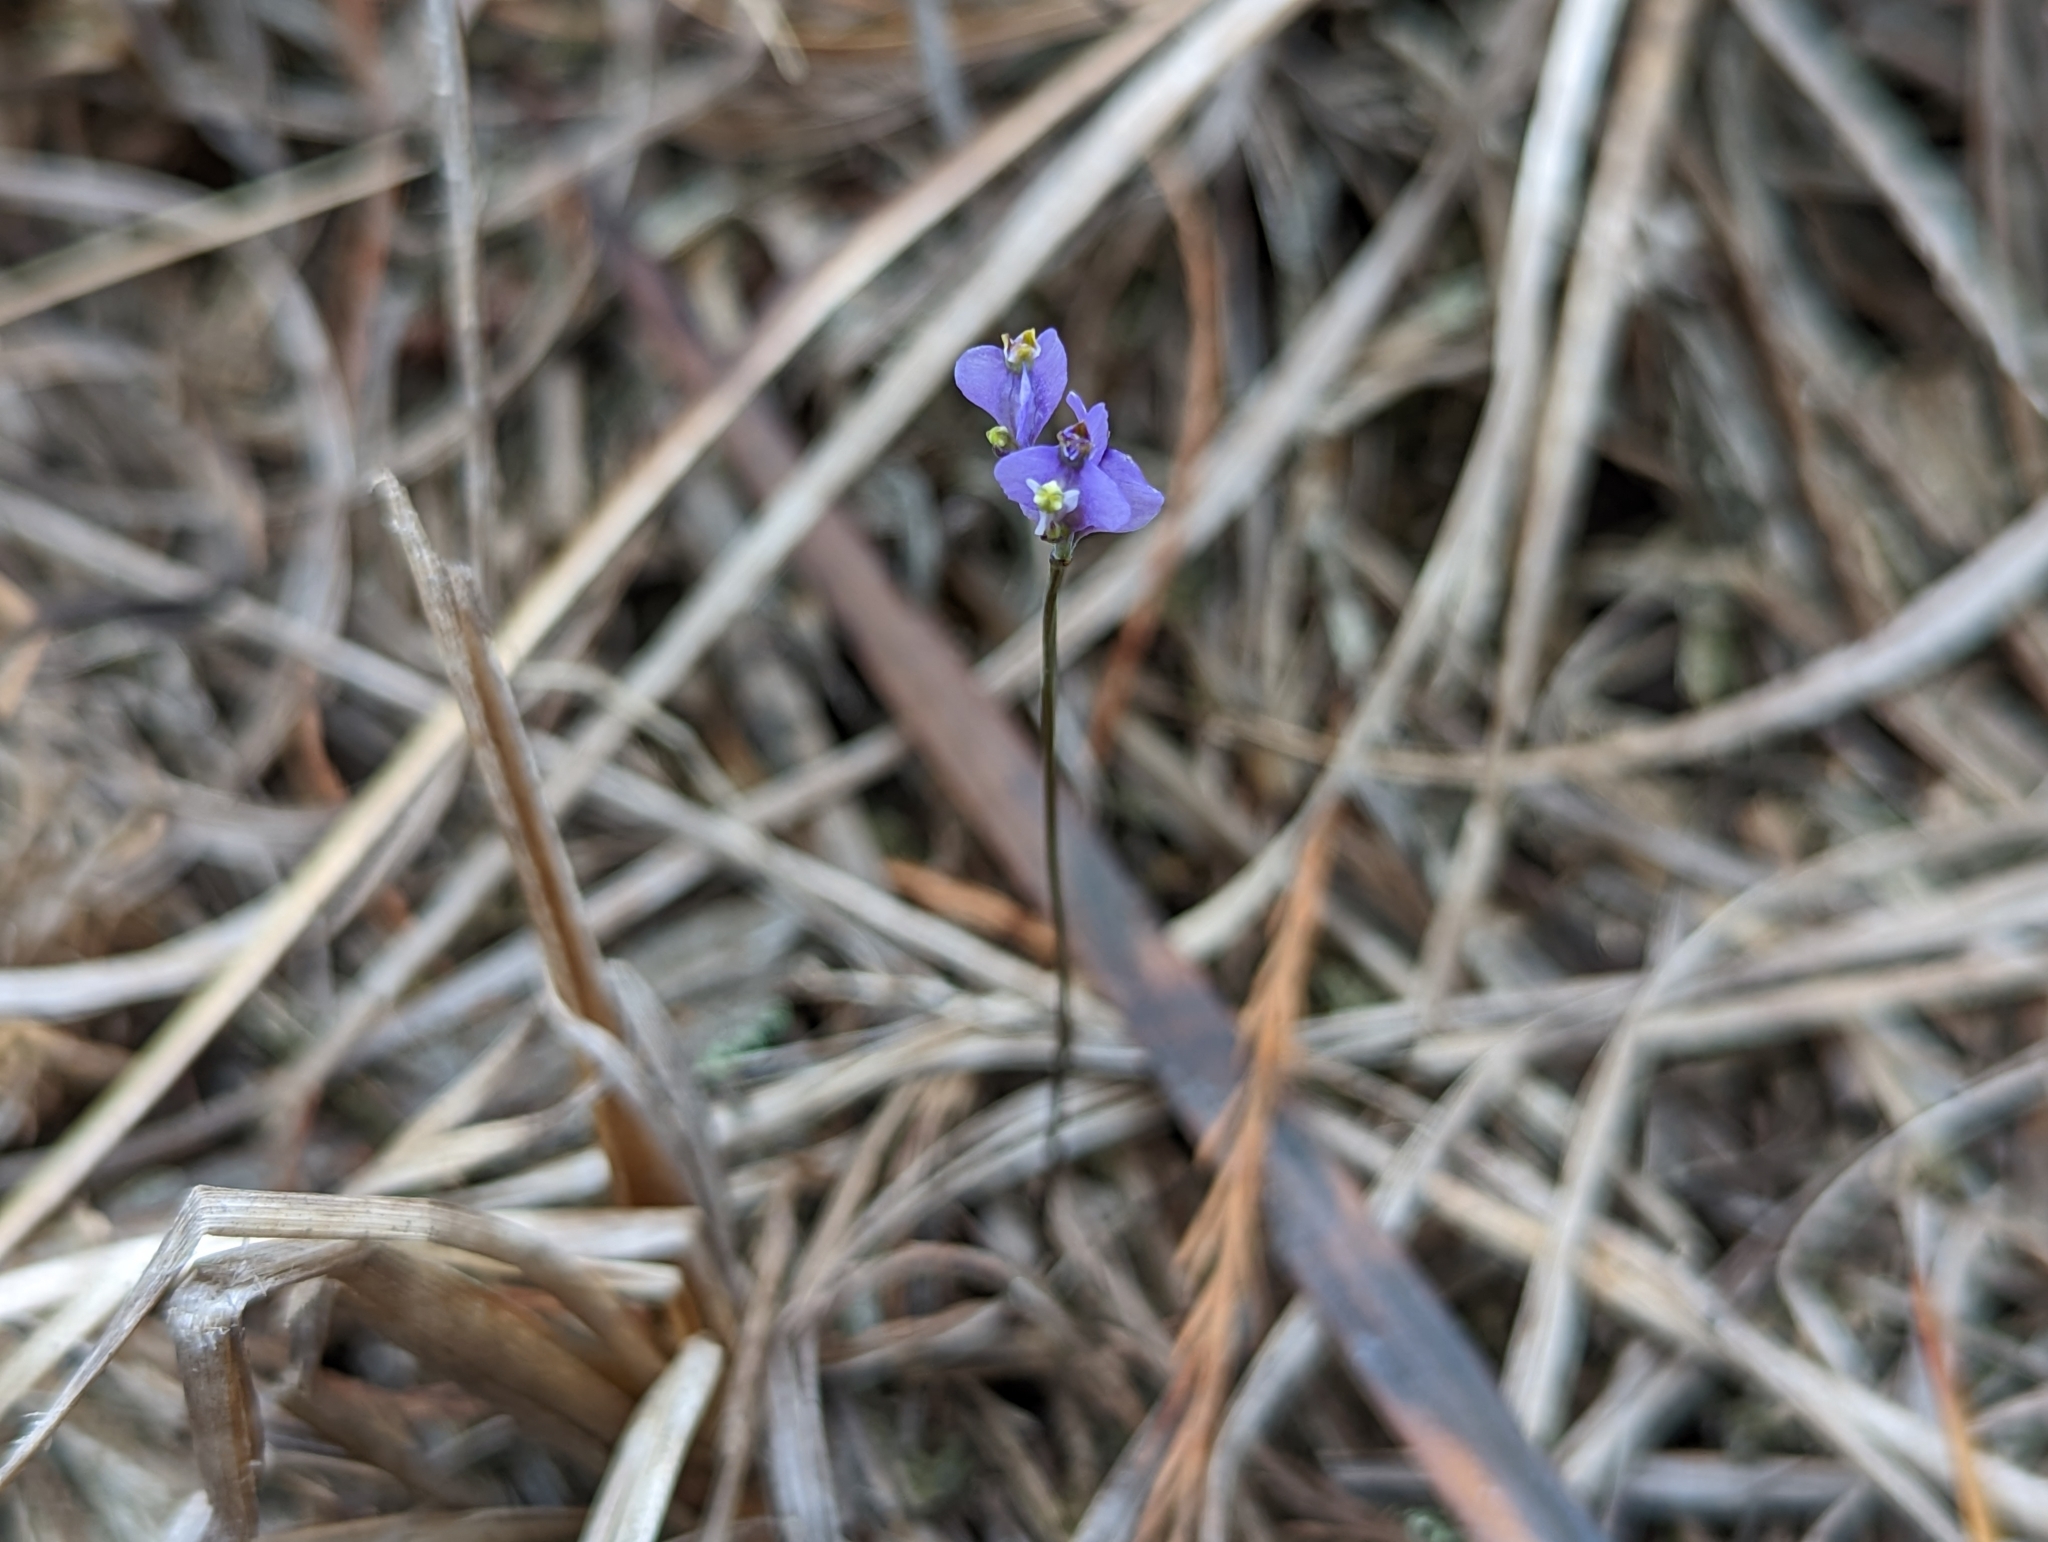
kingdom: Plantae
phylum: Tracheophyta
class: Liliopsida
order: Dioscoreales
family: Burmanniaceae
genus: Burmannia
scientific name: Burmannia biflora
